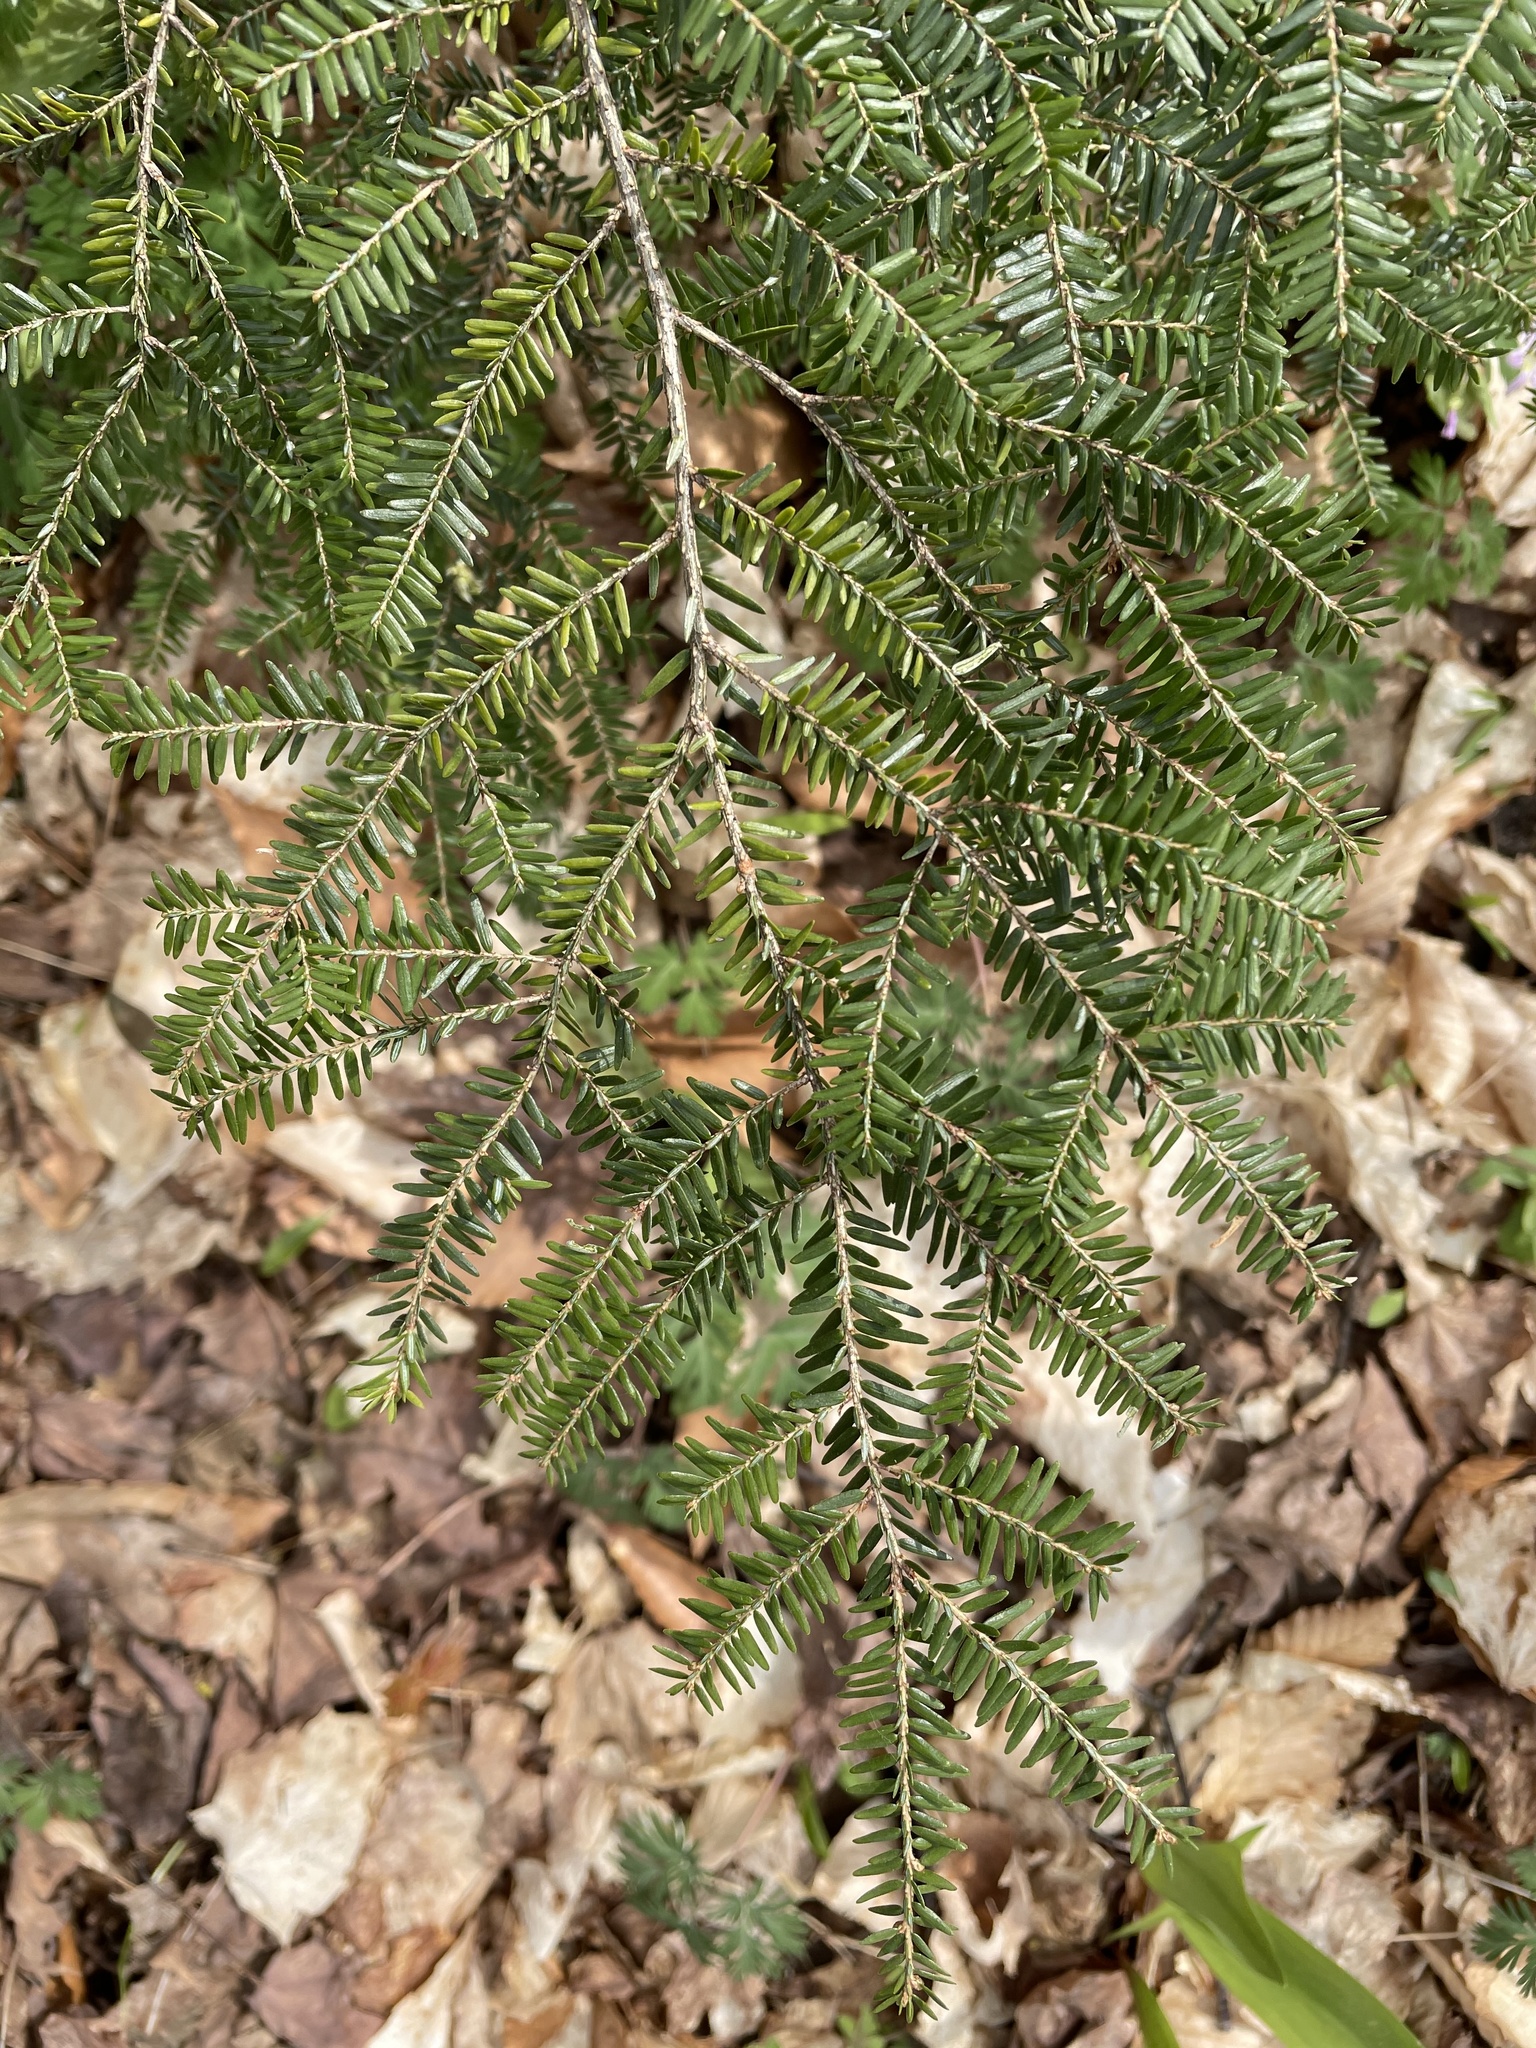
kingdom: Plantae
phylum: Tracheophyta
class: Pinopsida
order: Pinales
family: Pinaceae
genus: Tsuga
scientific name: Tsuga canadensis
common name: Eastern hemlock
